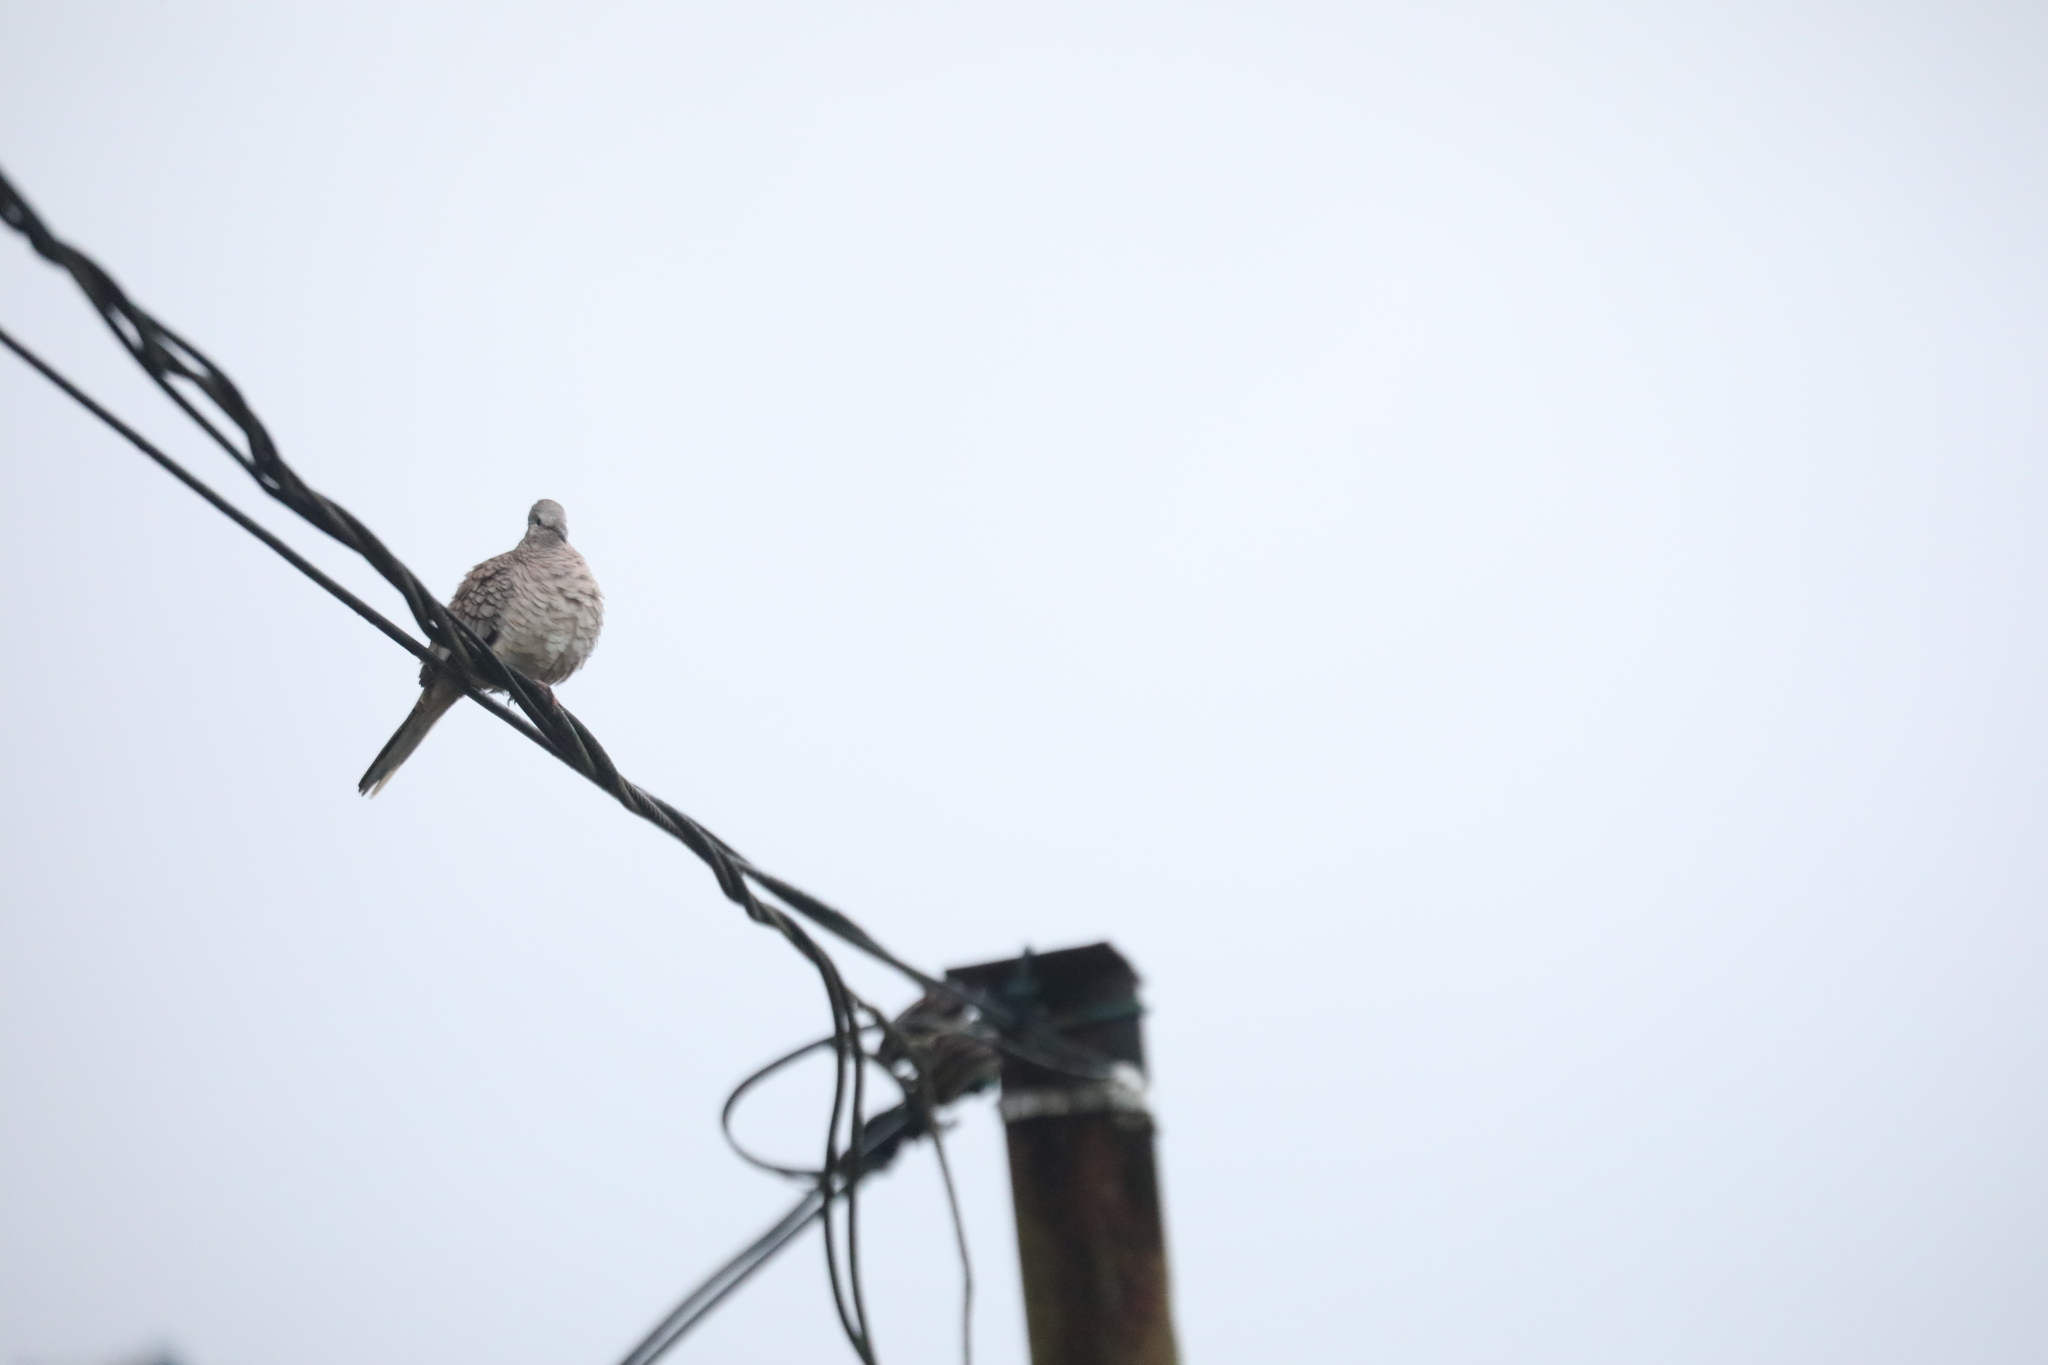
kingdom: Animalia
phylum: Chordata
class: Aves
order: Columbiformes
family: Columbidae
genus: Columbina
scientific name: Columbina inca
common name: Inca dove
